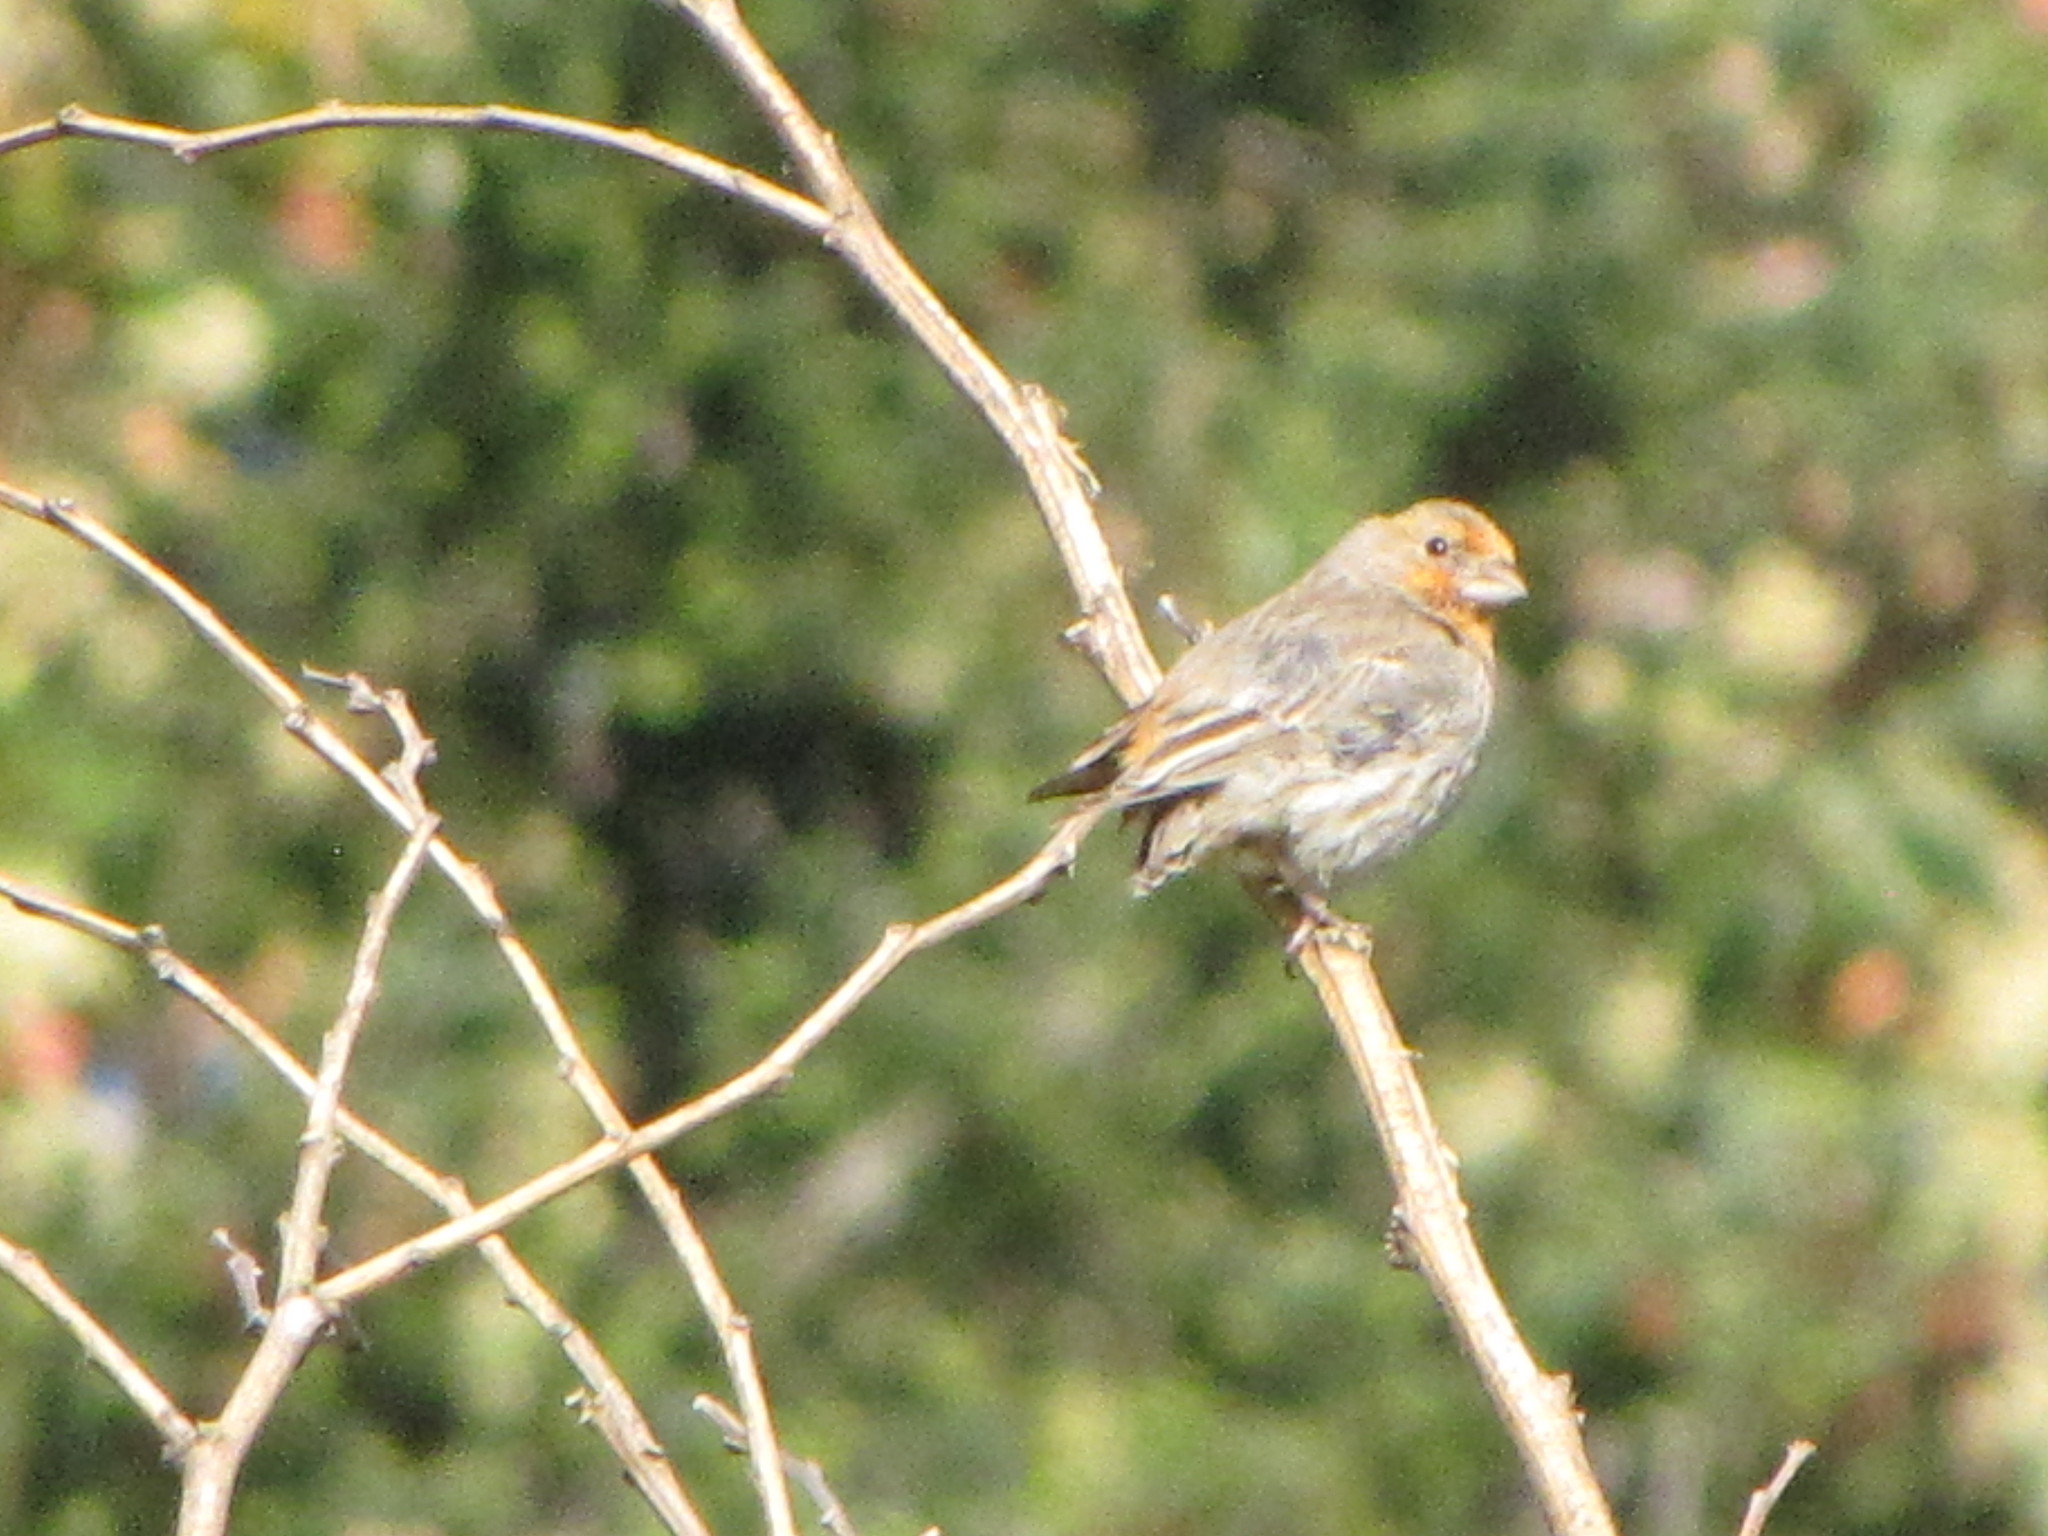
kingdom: Animalia
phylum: Chordata
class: Aves
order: Passeriformes
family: Fringillidae
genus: Haemorhous
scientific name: Haemorhous mexicanus
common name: House finch
